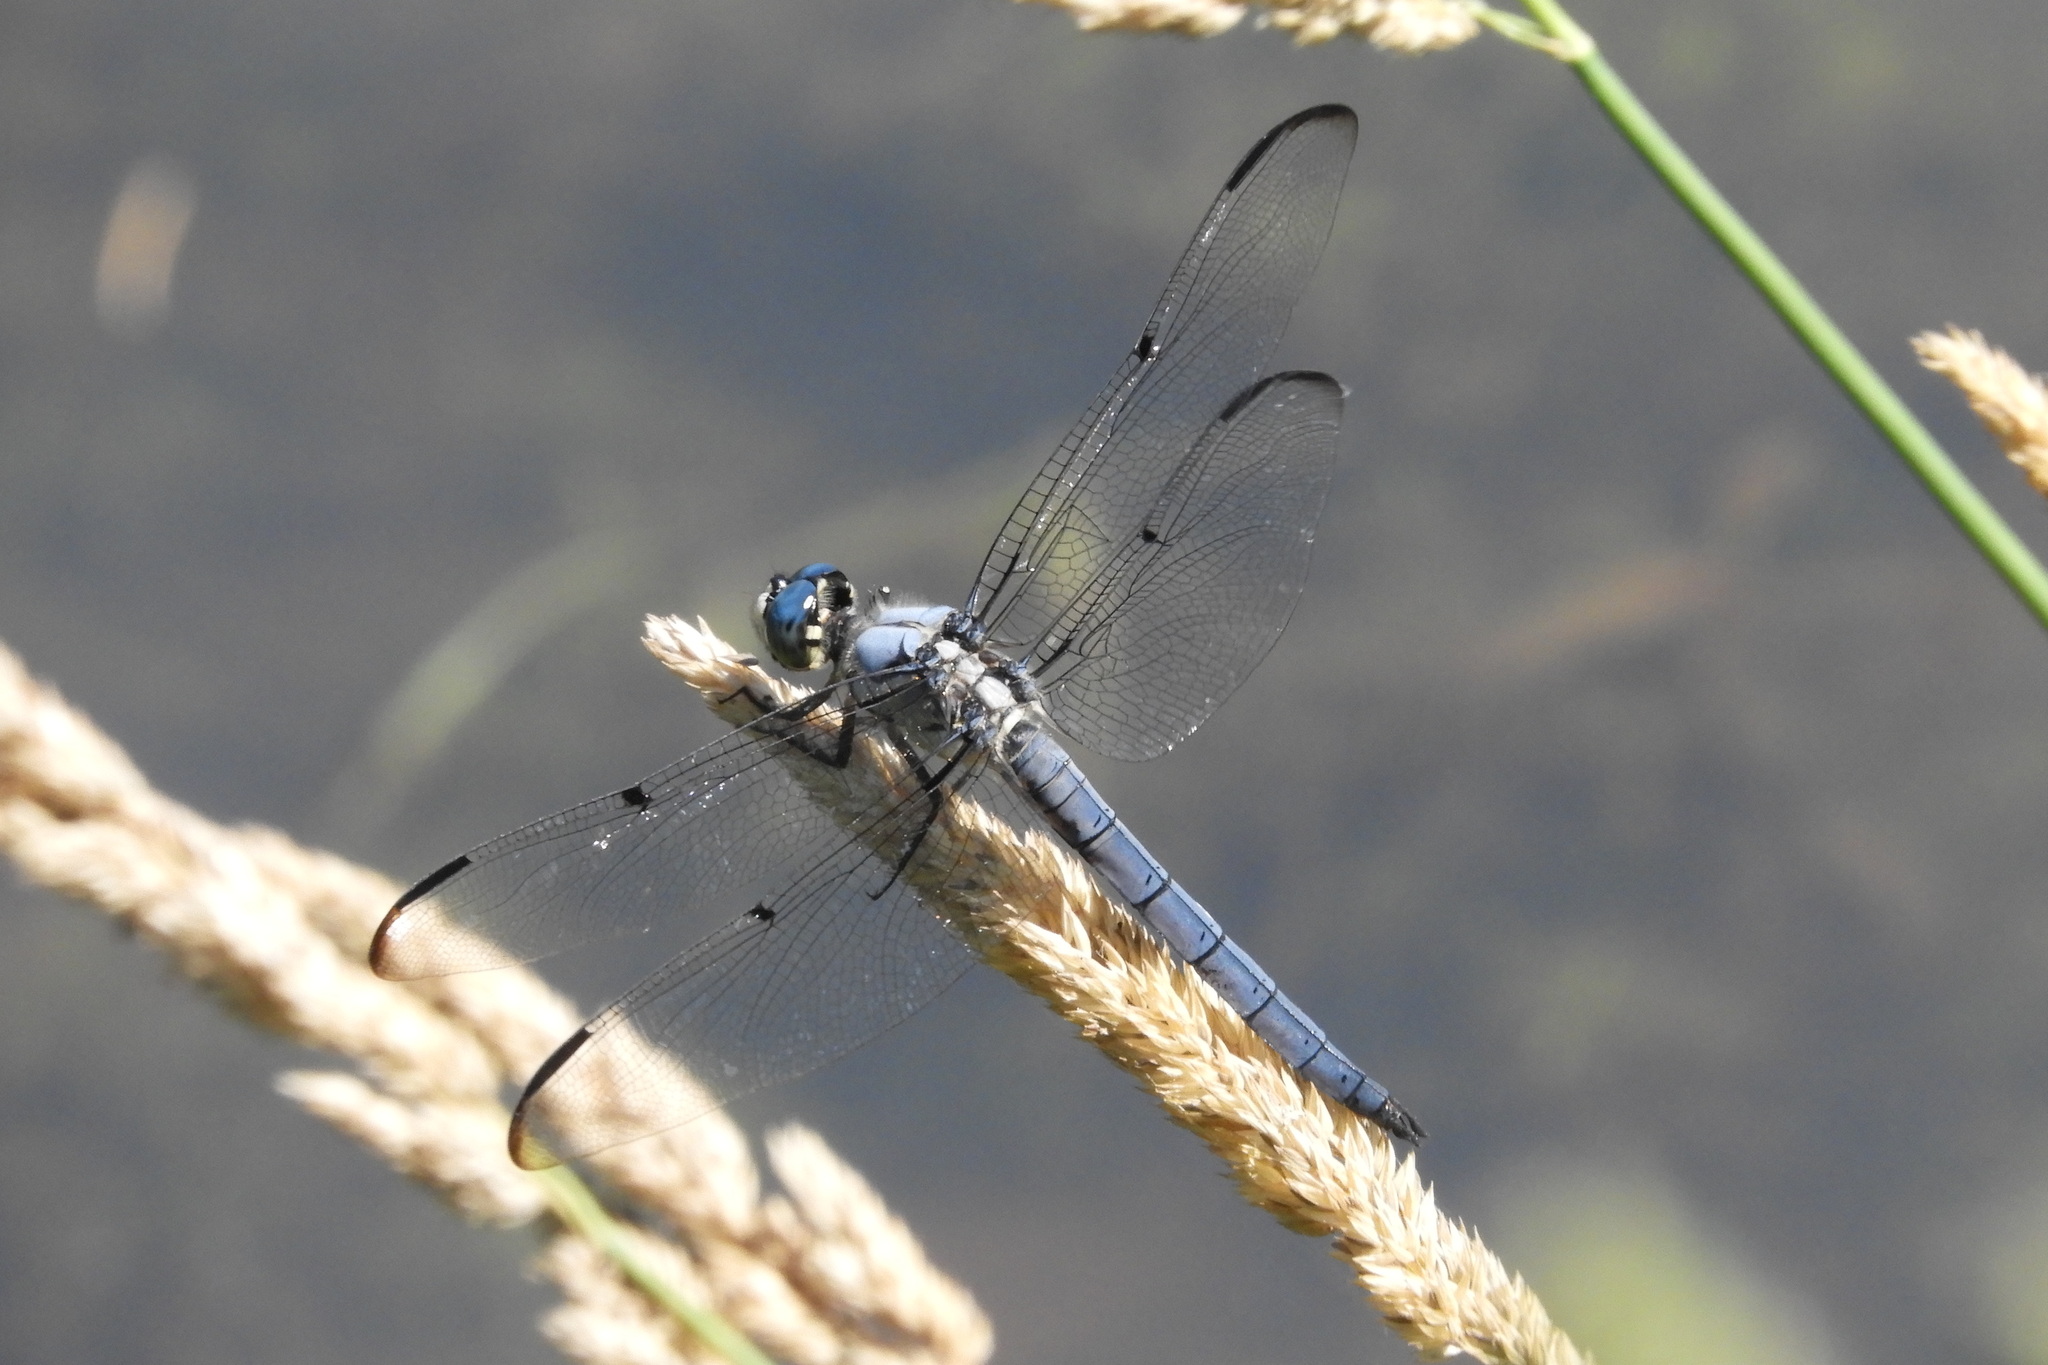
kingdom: Animalia
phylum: Arthropoda
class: Insecta
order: Odonata
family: Libellulidae
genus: Libellula
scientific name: Libellula vibrans
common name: Great blue skimmer
